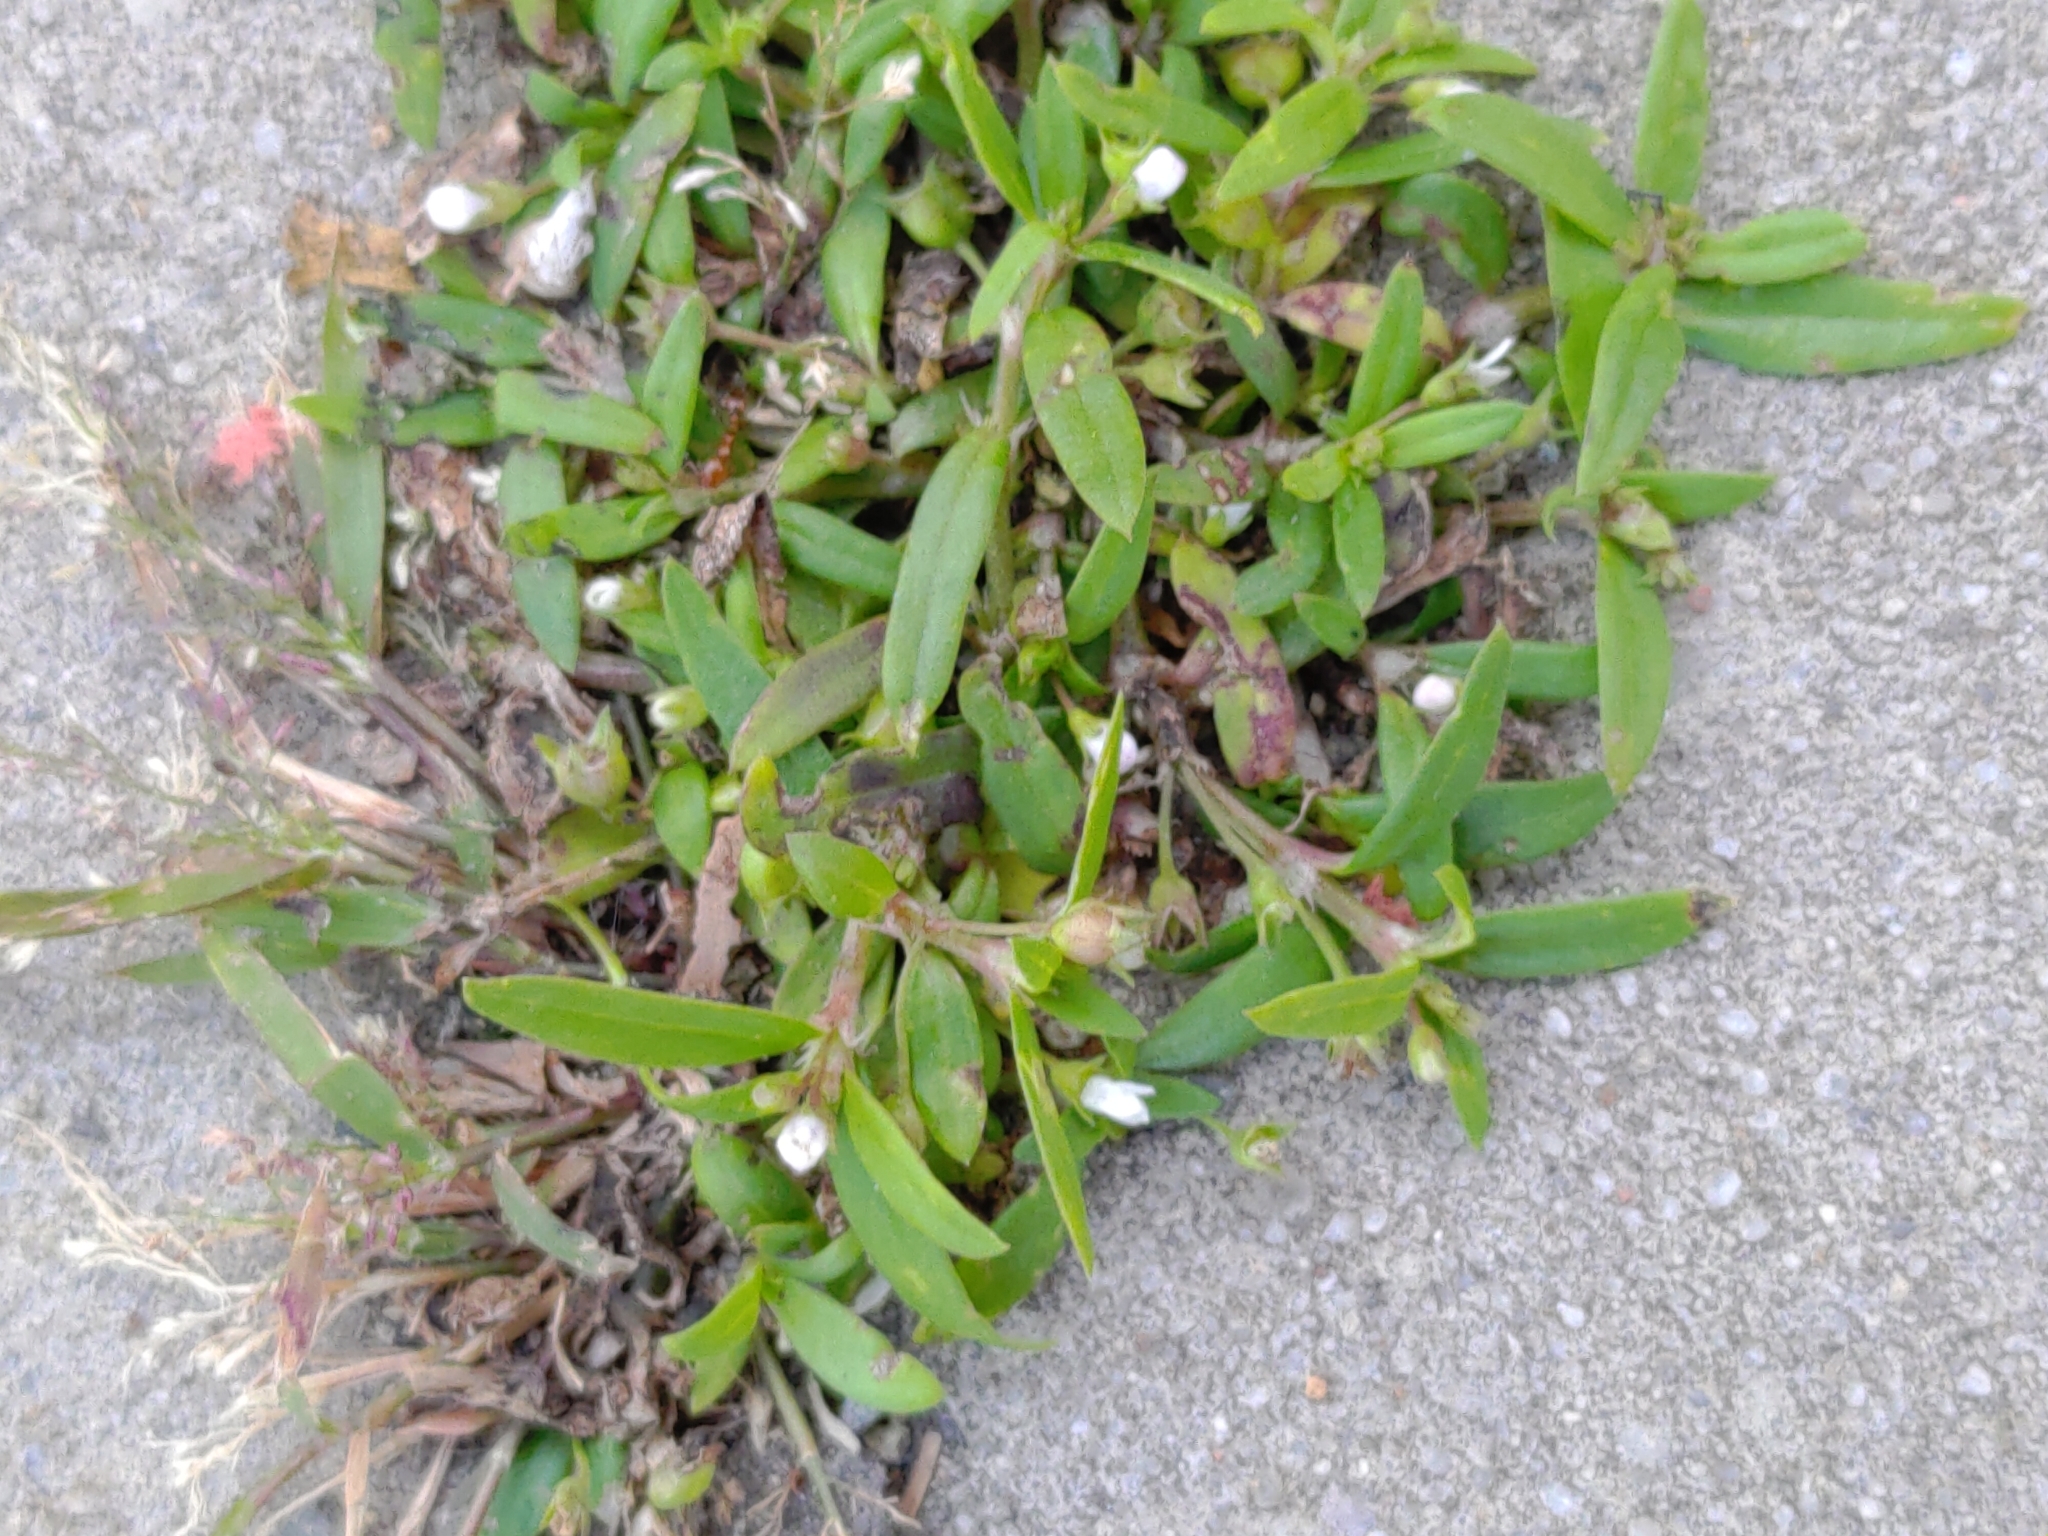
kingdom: Plantae
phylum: Tracheophyta
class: Magnoliopsida
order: Gentianales
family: Rubiaceae
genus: Oldenlandia
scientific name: Oldenlandia corymbosa
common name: Flat-top mille graines
